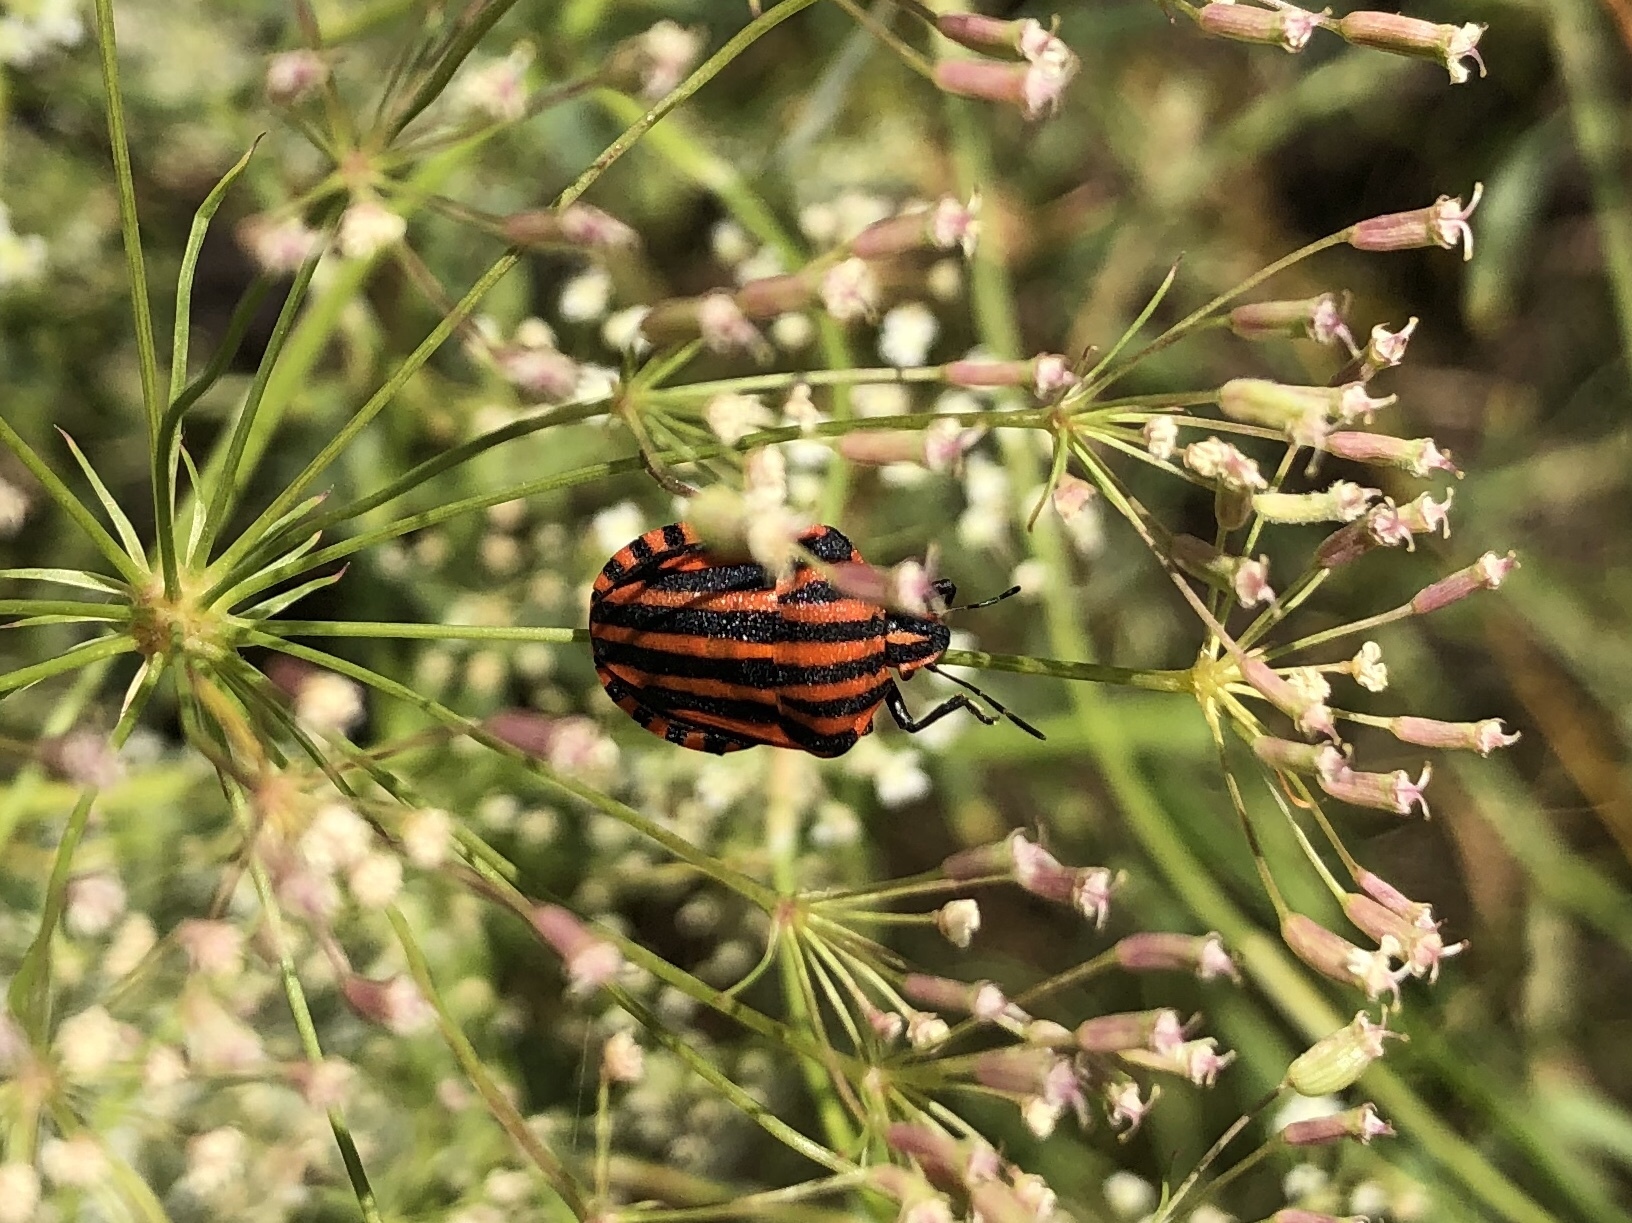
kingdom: Animalia
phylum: Arthropoda
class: Insecta
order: Hemiptera
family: Pentatomidae
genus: Graphosoma
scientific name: Graphosoma italicum
